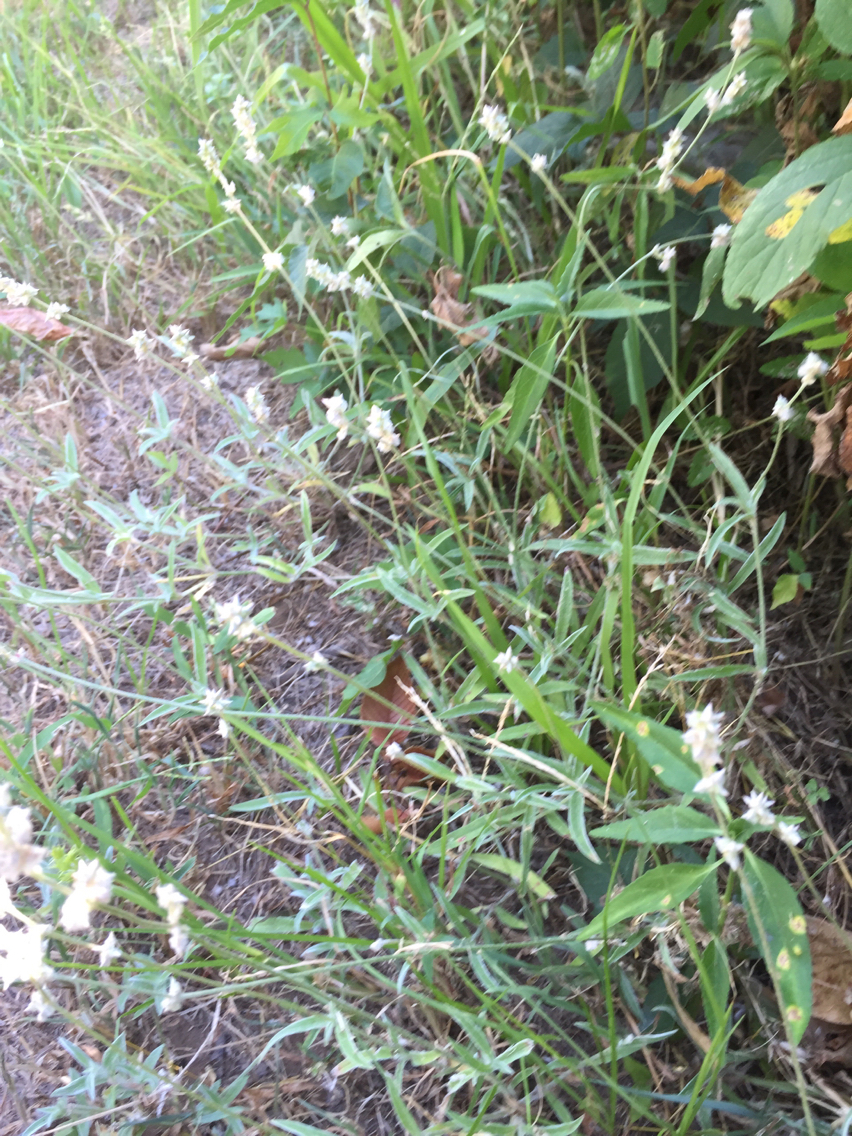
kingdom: Plantae
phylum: Tracheophyta
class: Magnoliopsida
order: Caryophyllales
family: Amaranthaceae
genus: Froelichia
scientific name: Froelichia gracilis
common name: Slender cottonweed
